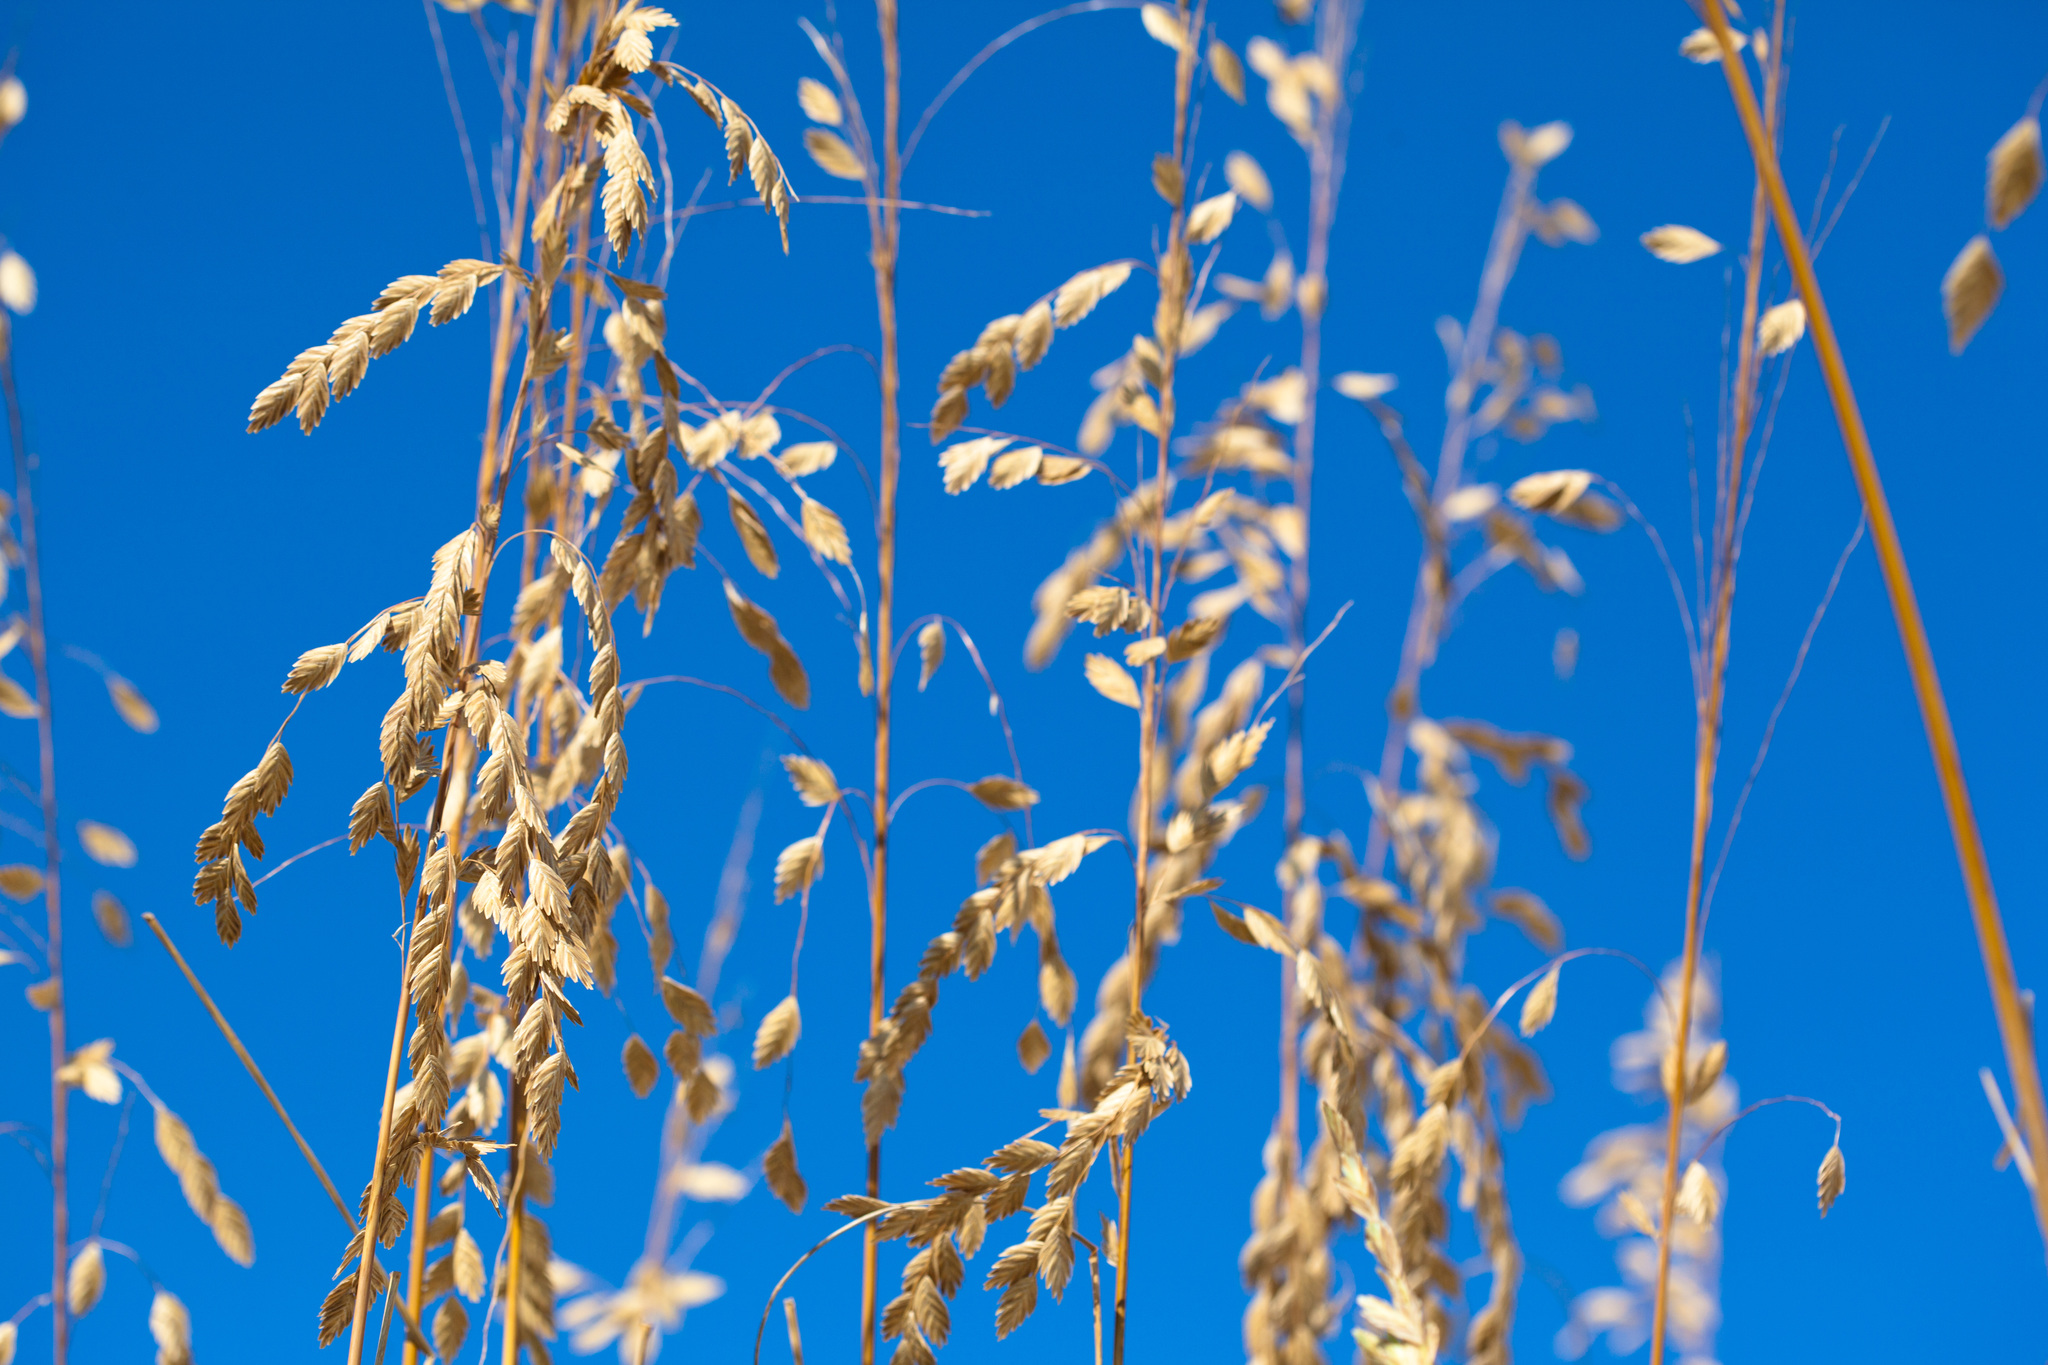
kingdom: Plantae
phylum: Tracheophyta
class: Liliopsida
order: Poales
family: Poaceae
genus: Uniola
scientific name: Uniola paniculata
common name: Seaside-oats
